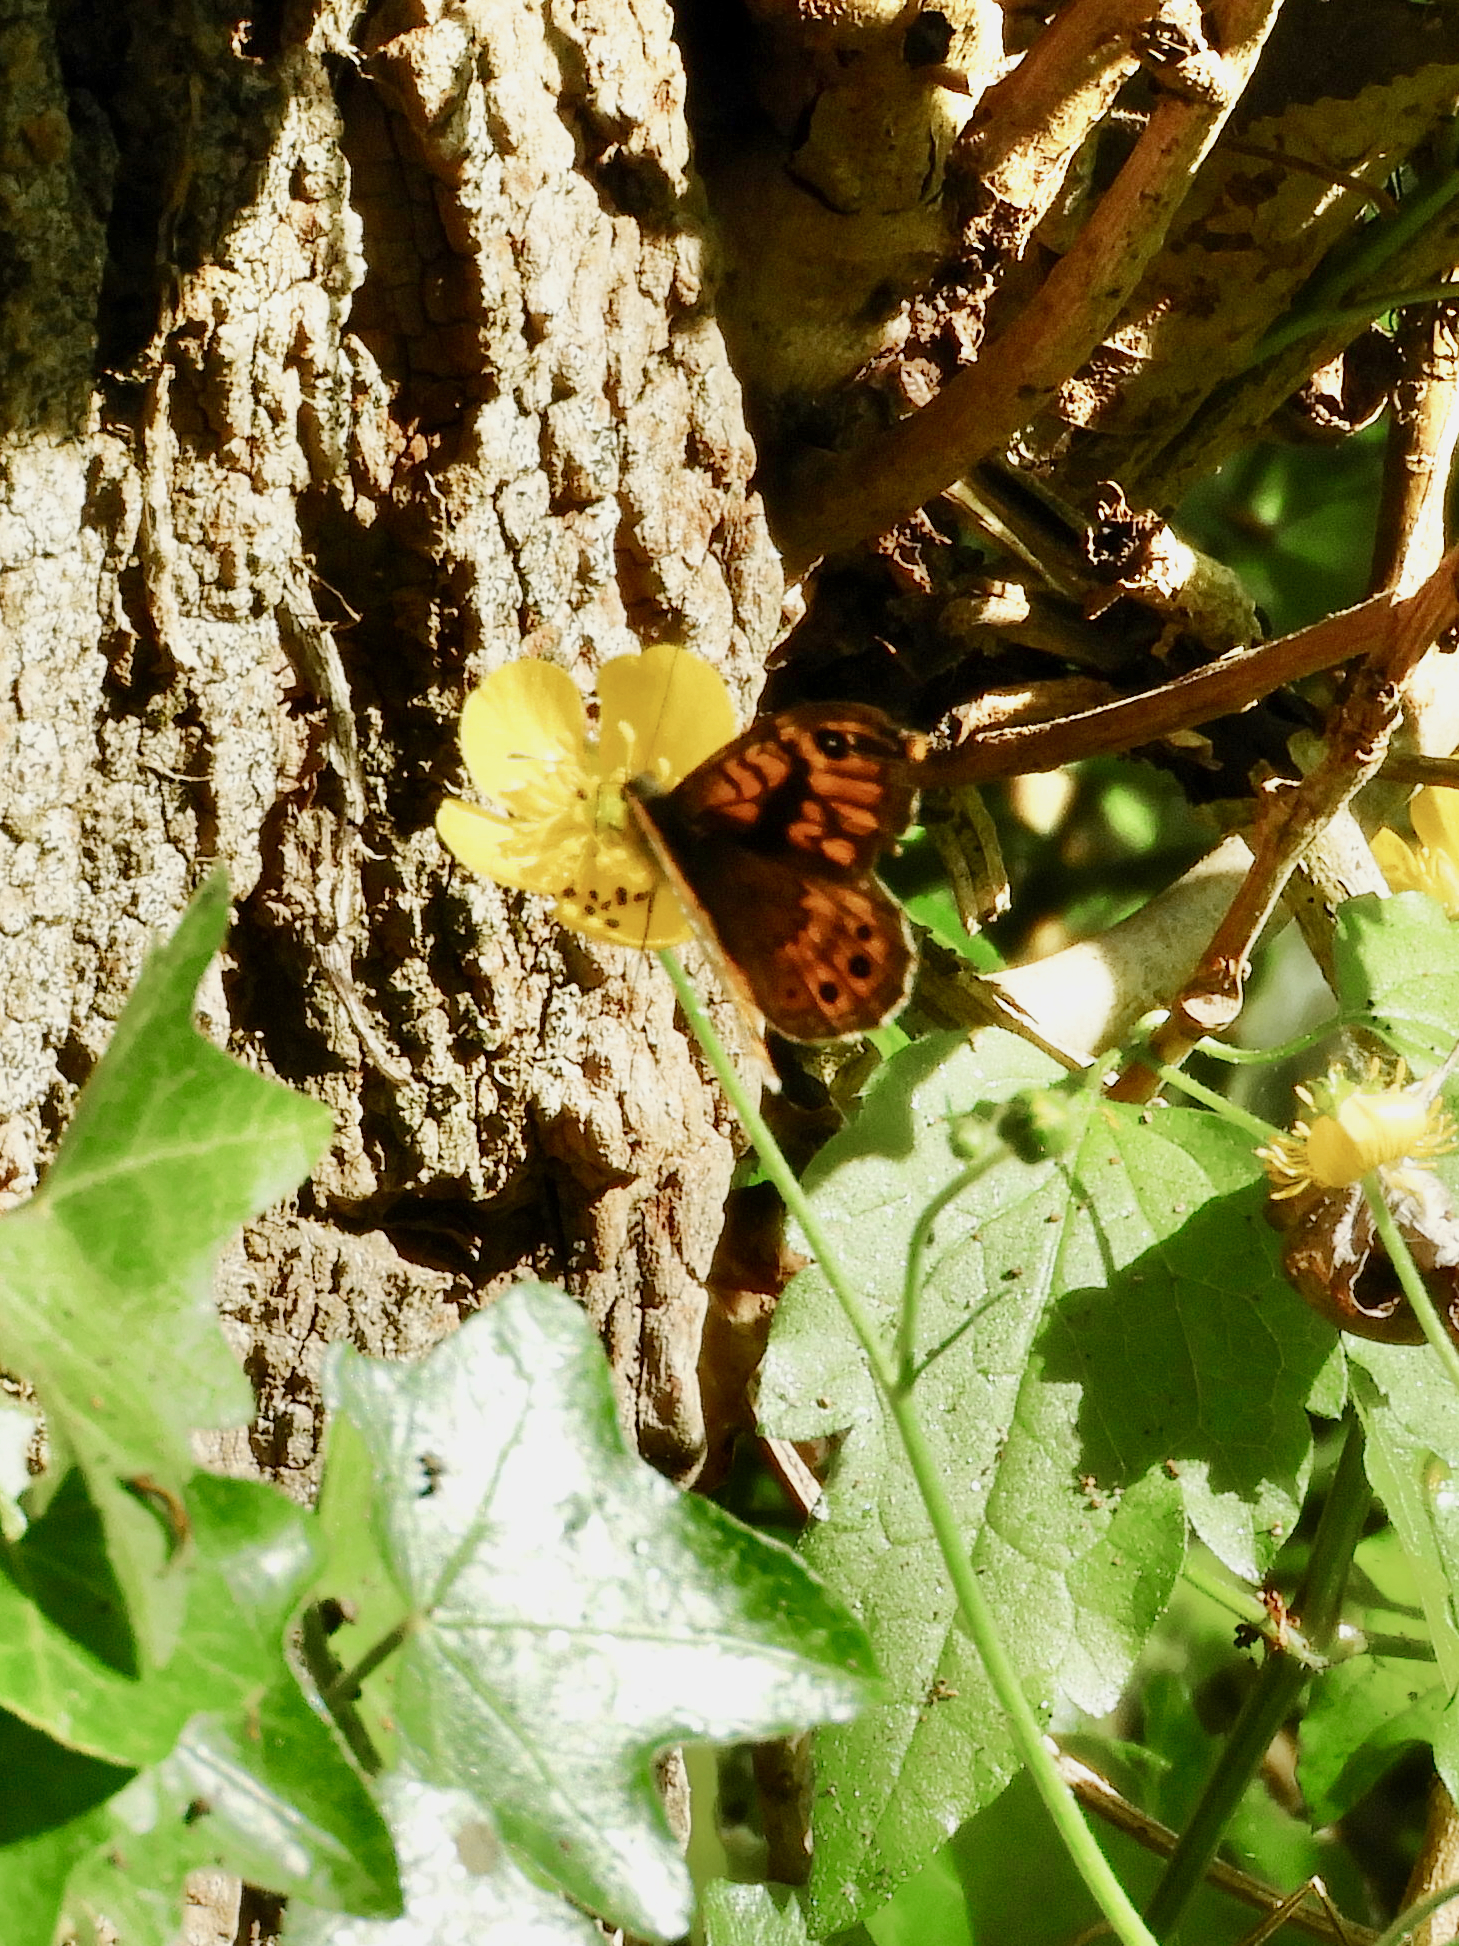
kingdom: Animalia
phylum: Arthropoda
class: Insecta
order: Lepidoptera
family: Nymphalidae
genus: Pararge
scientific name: Pararge Lasiommata megera
